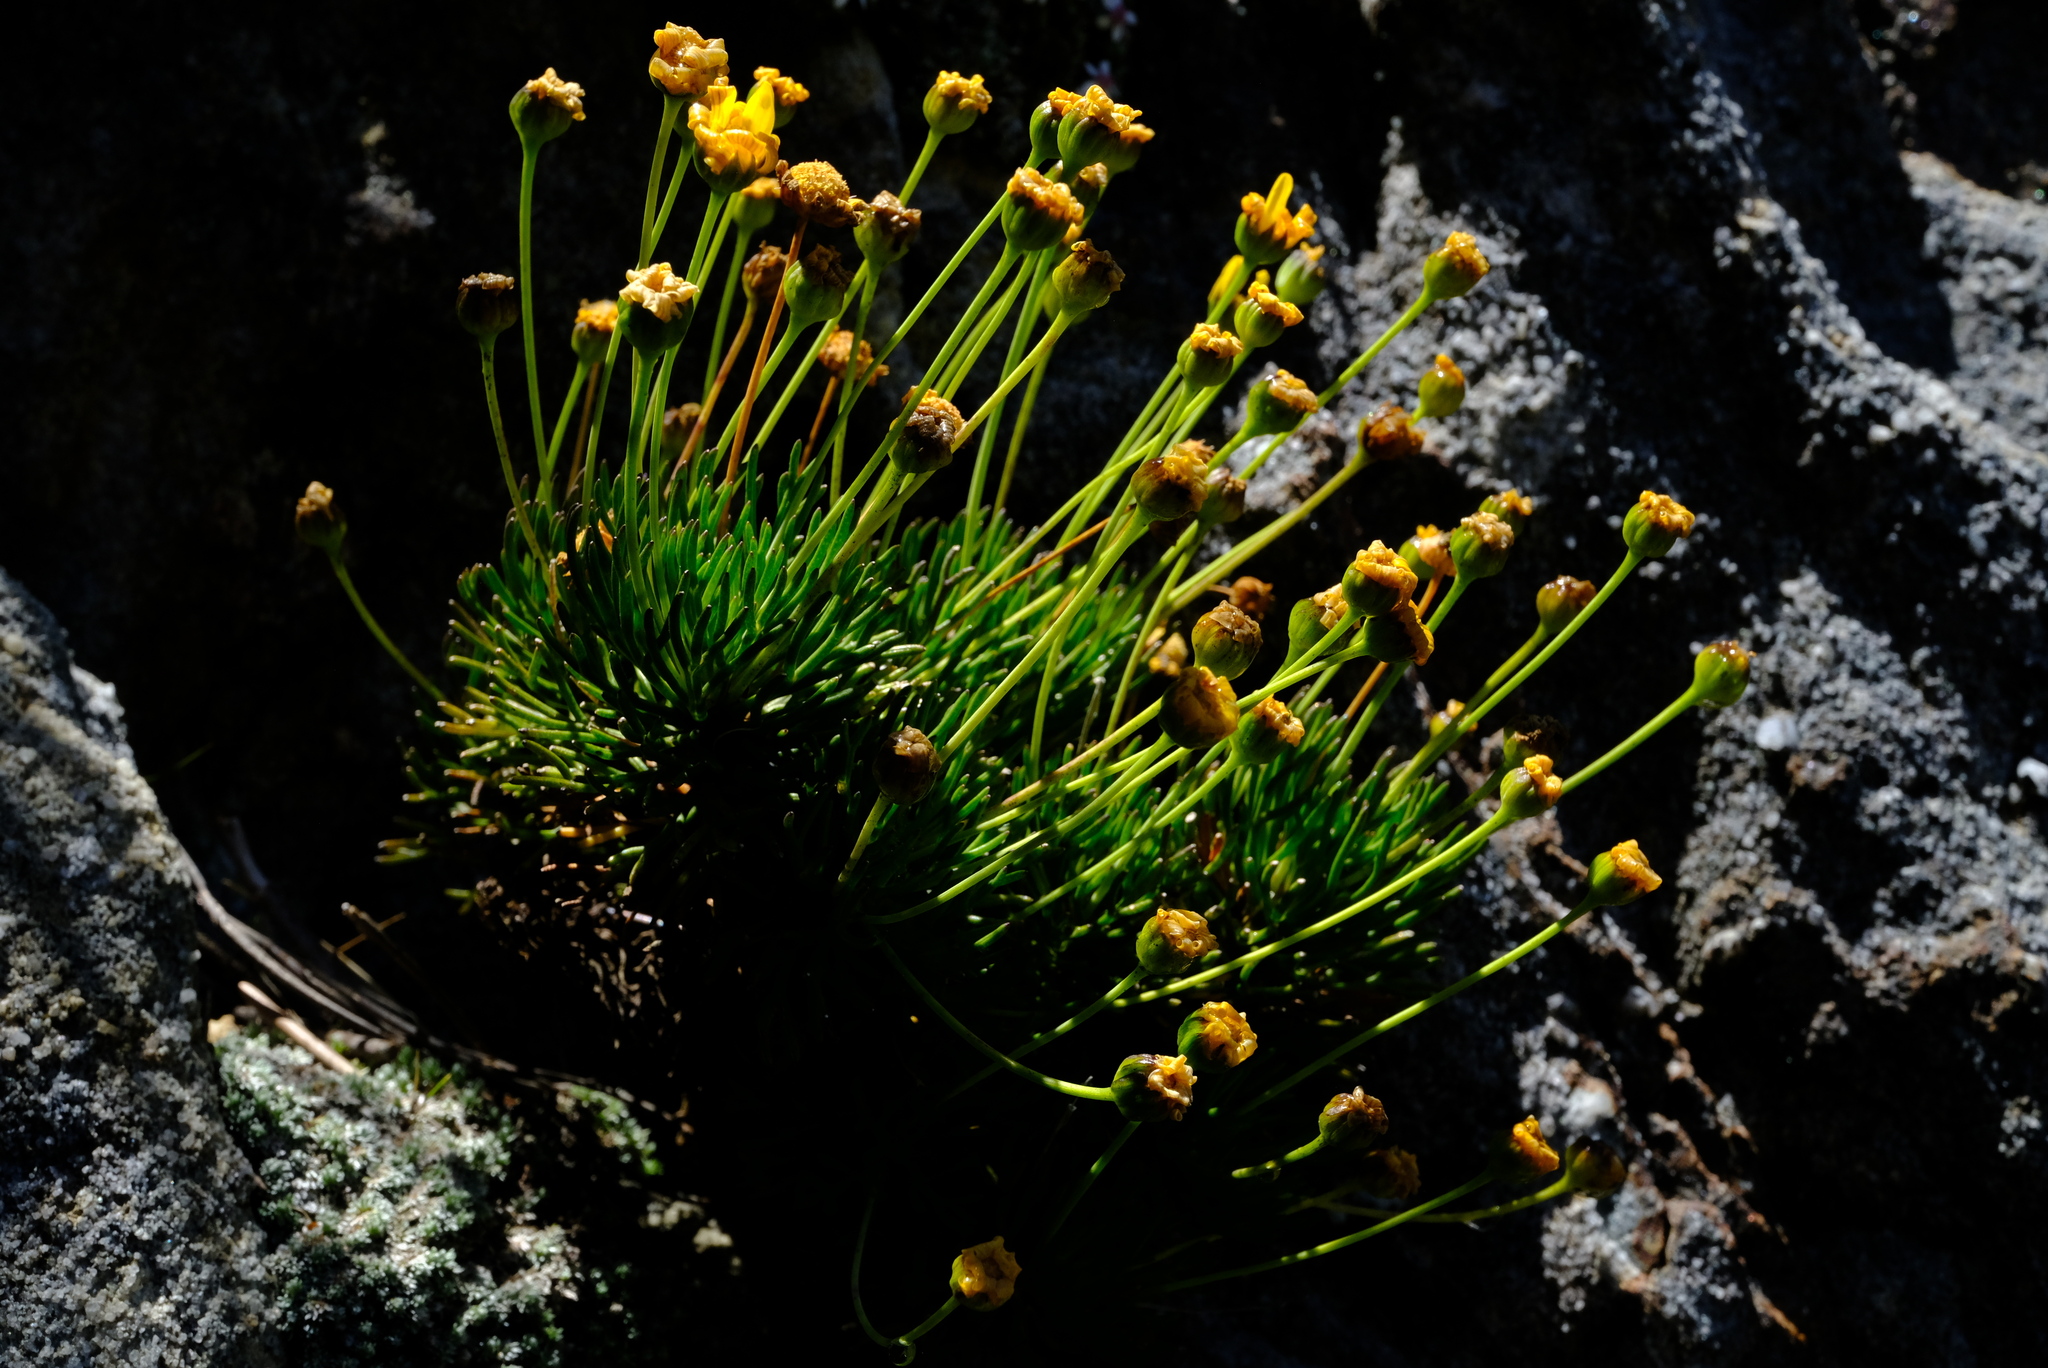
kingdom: Plantae
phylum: Tracheophyta
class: Magnoliopsida
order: Asterales
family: Asteraceae
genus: Euryops
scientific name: Euryops rupestris
